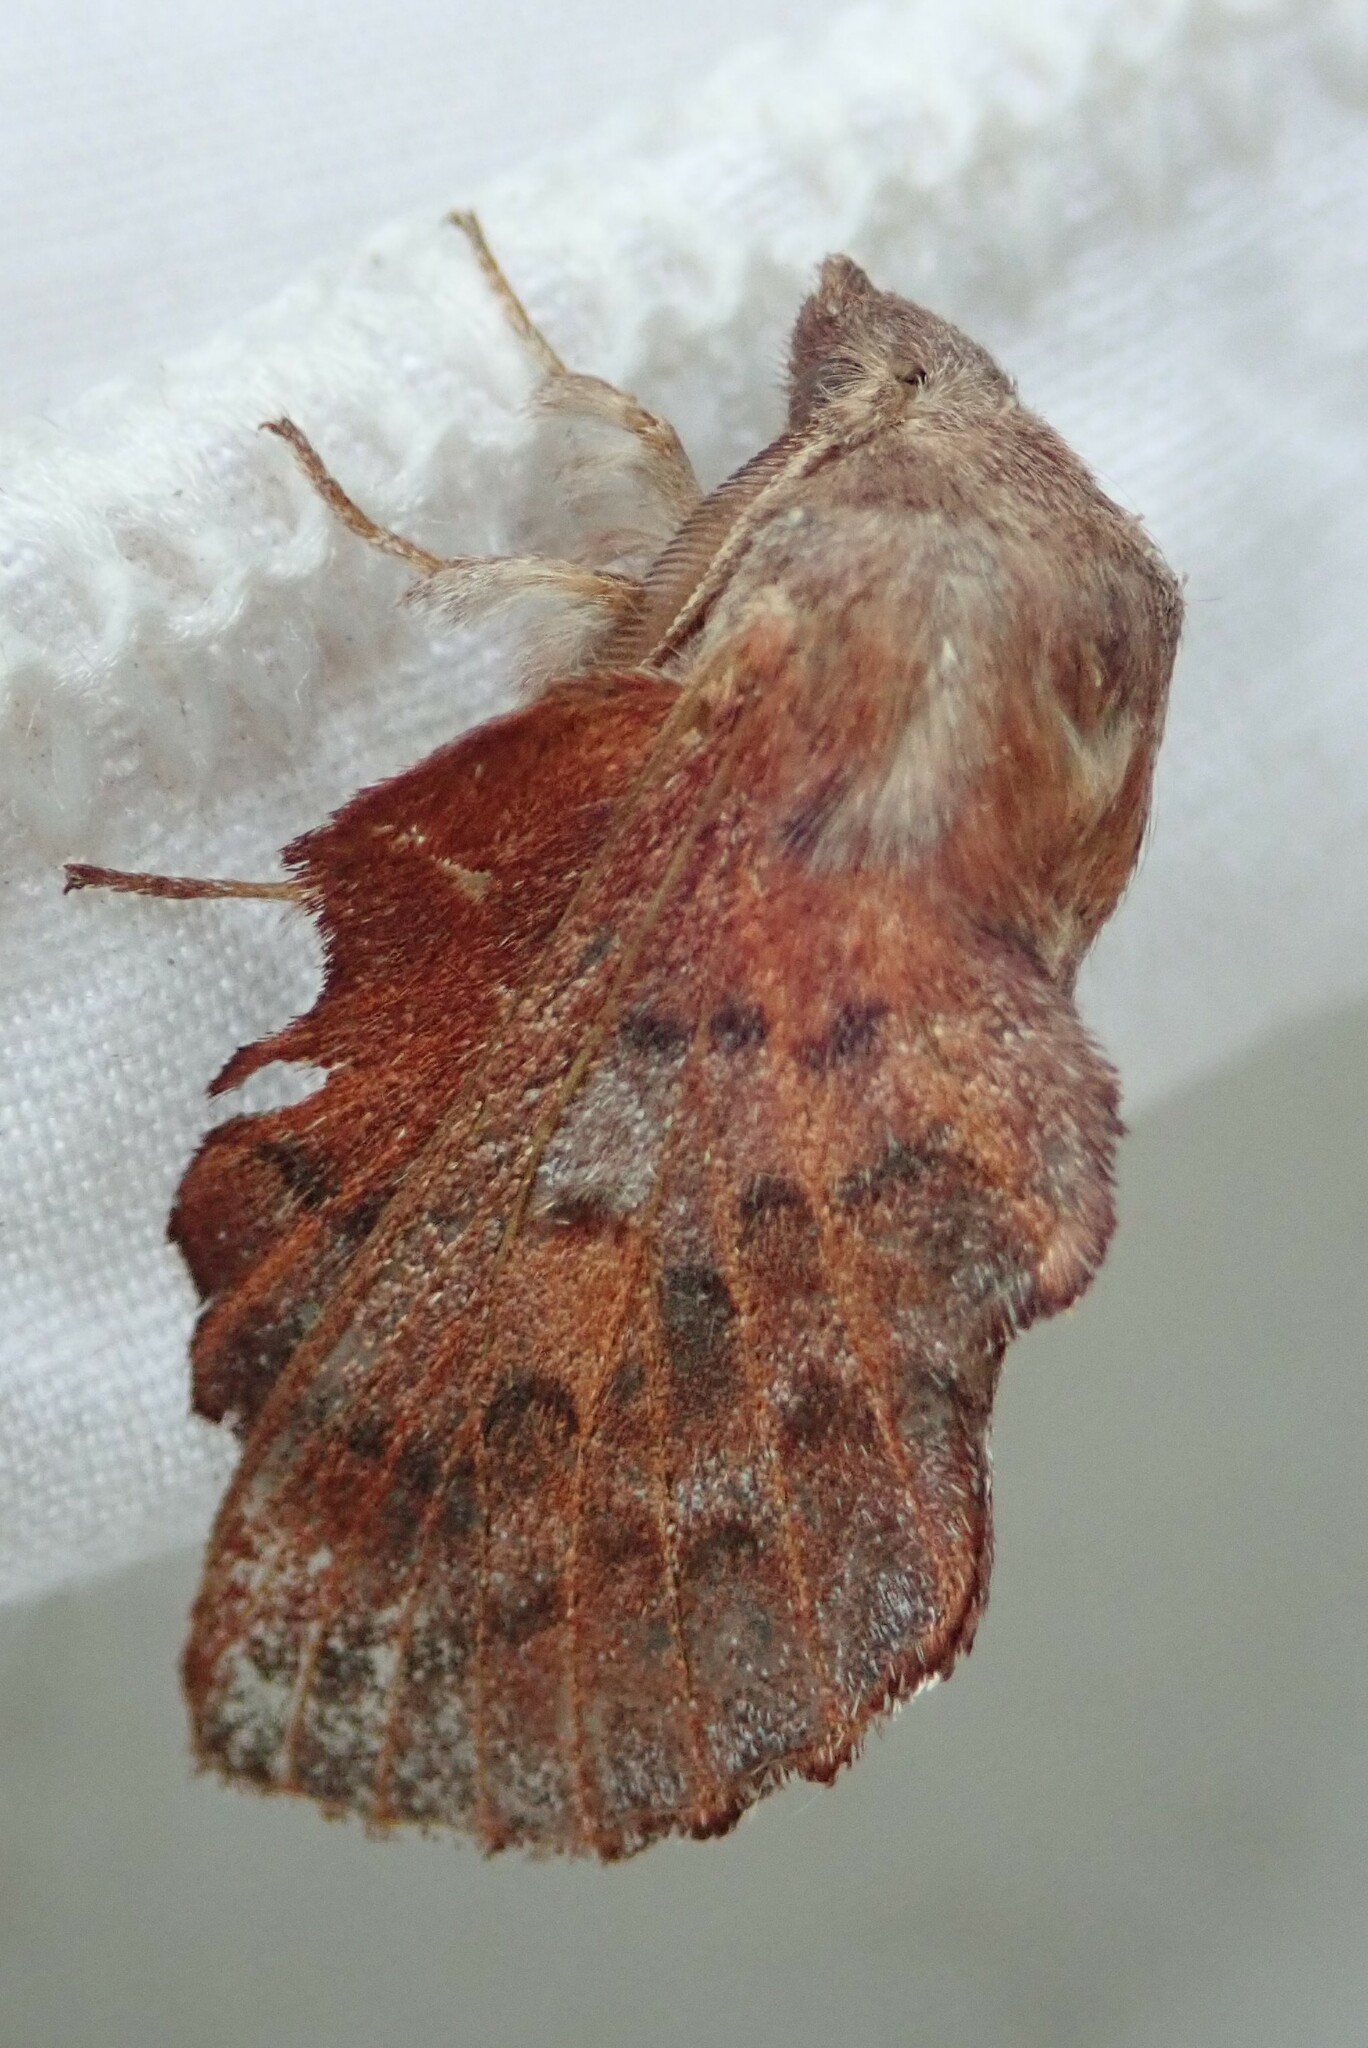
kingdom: Animalia
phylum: Arthropoda
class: Insecta
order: Lepidoptera
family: Lasiocampidae
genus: Phyllodesma
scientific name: Phyllodesma americana
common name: American lappet moth
